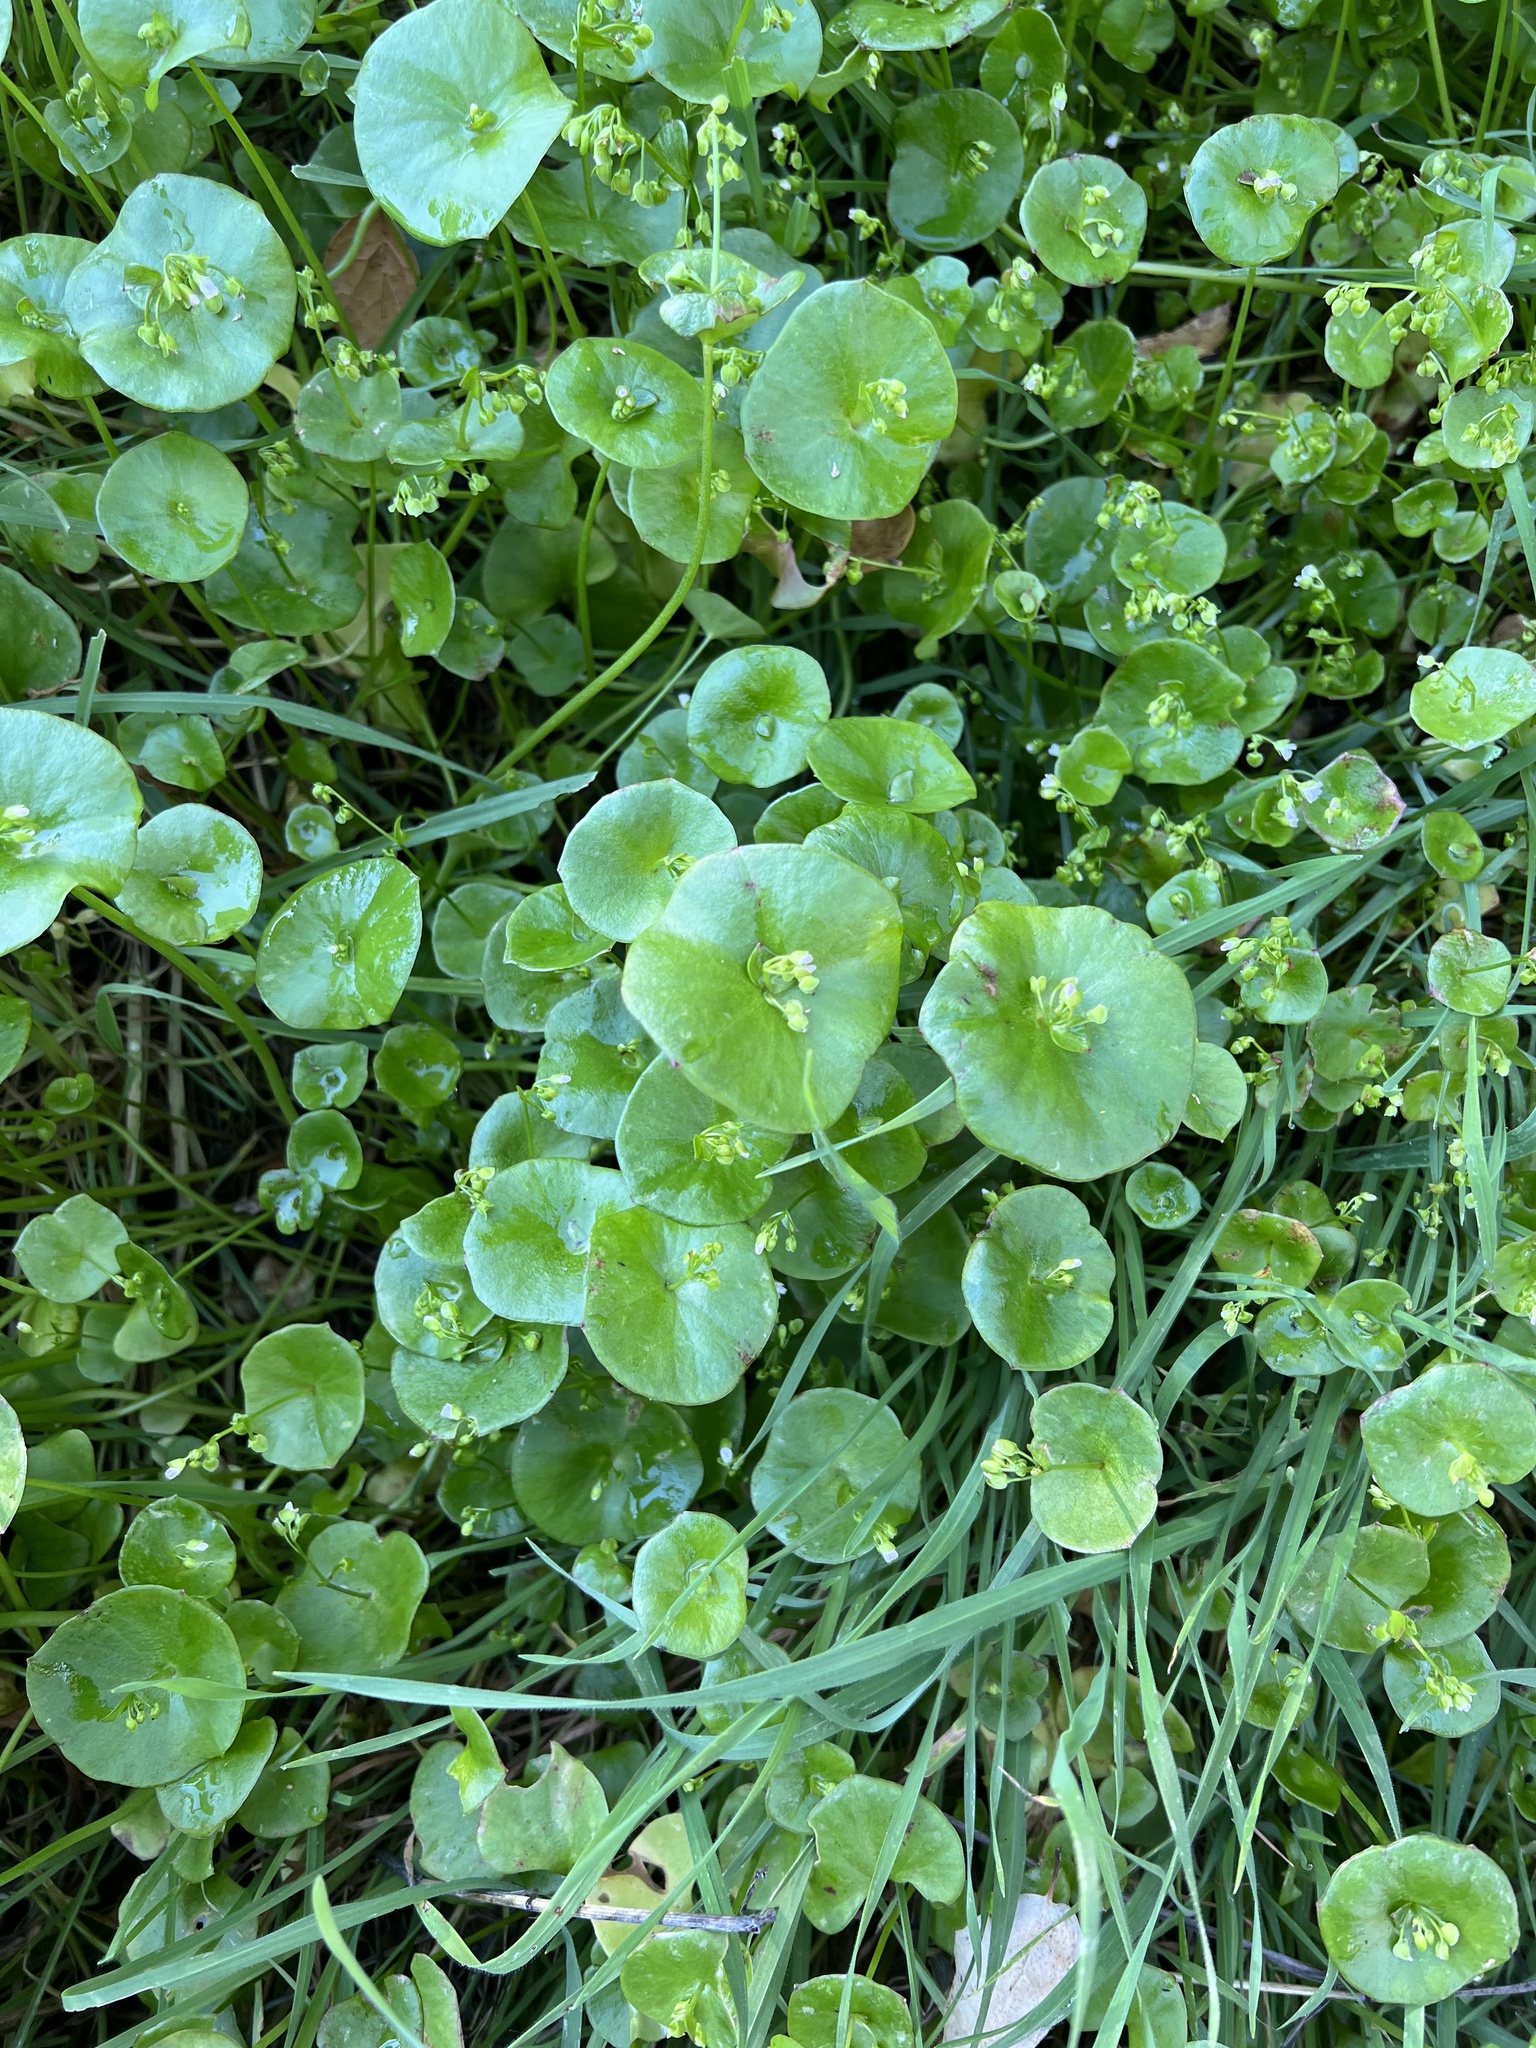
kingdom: Plantae
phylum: Tracheophyta
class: Magnoliopsida
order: Caryophyllales
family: Montiaceae
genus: Claytonia
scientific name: Claytonia perfoliata
